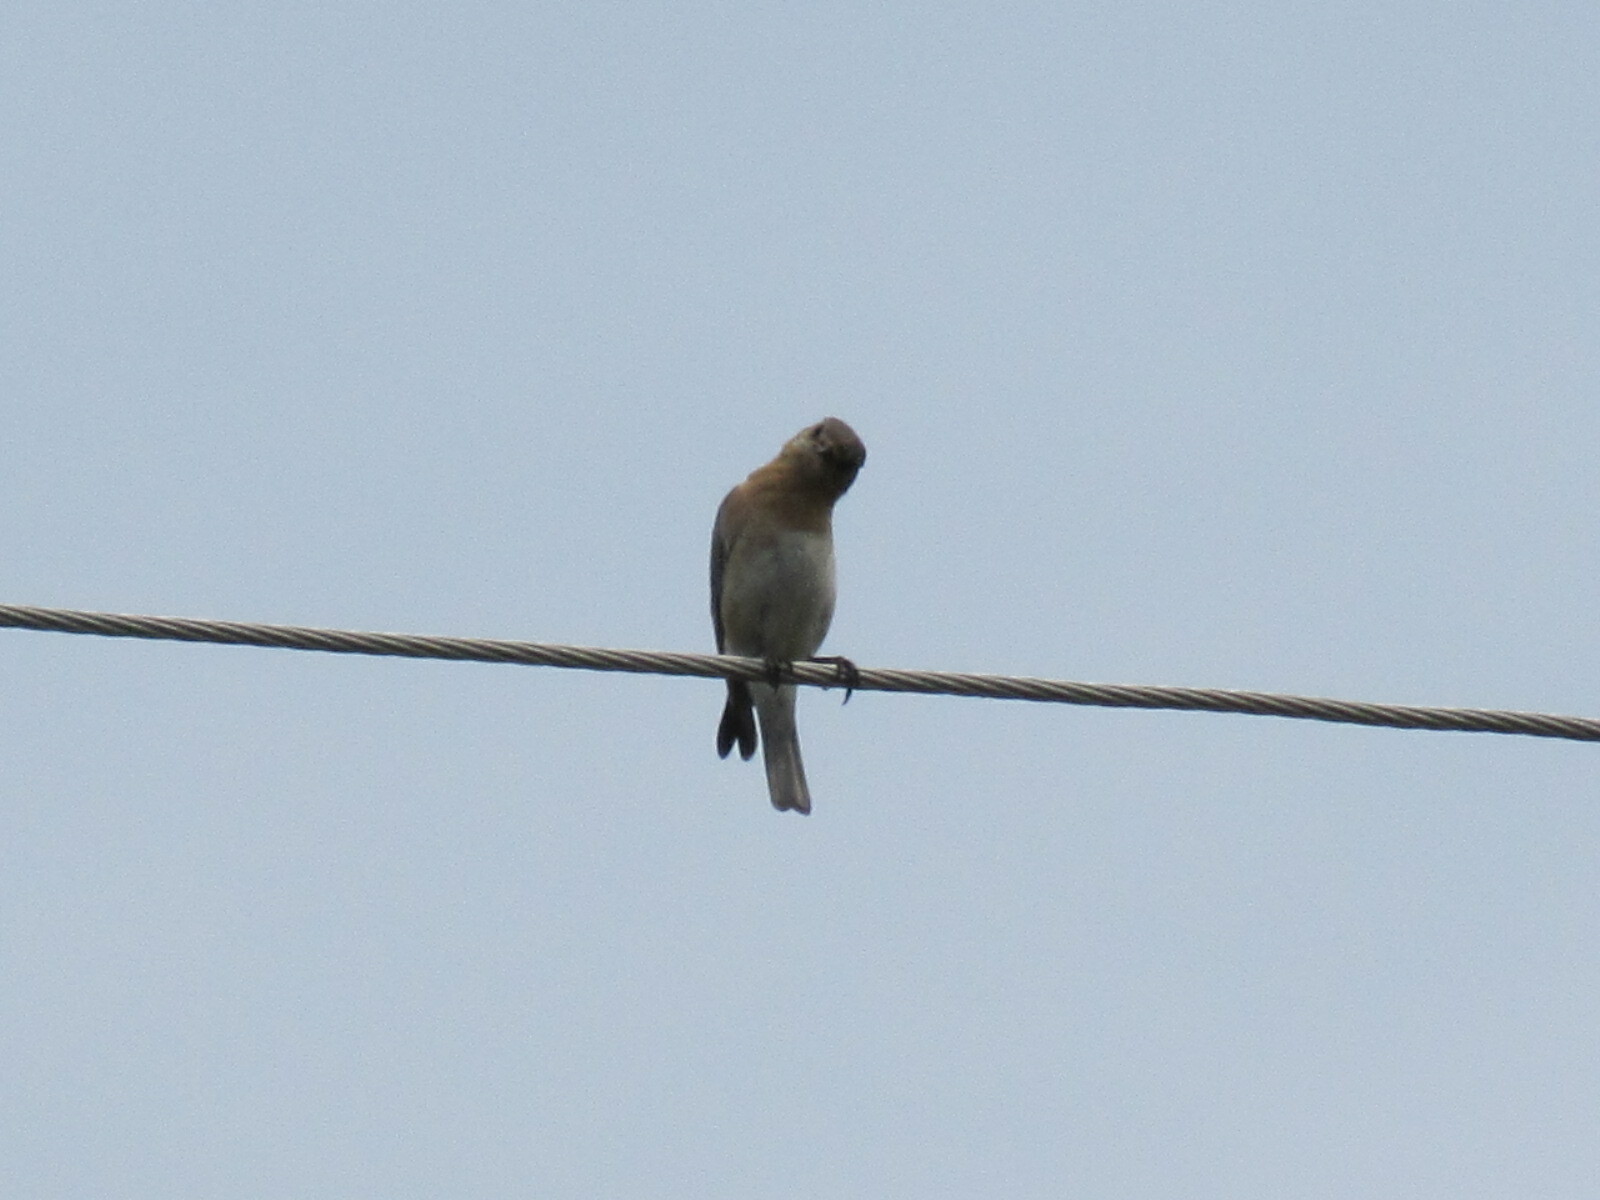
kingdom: Animalia
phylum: Chordata
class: Aves
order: Passeriformes
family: Turdidae
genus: Sialia
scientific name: Sialia sialis
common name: Eastern bluebird
